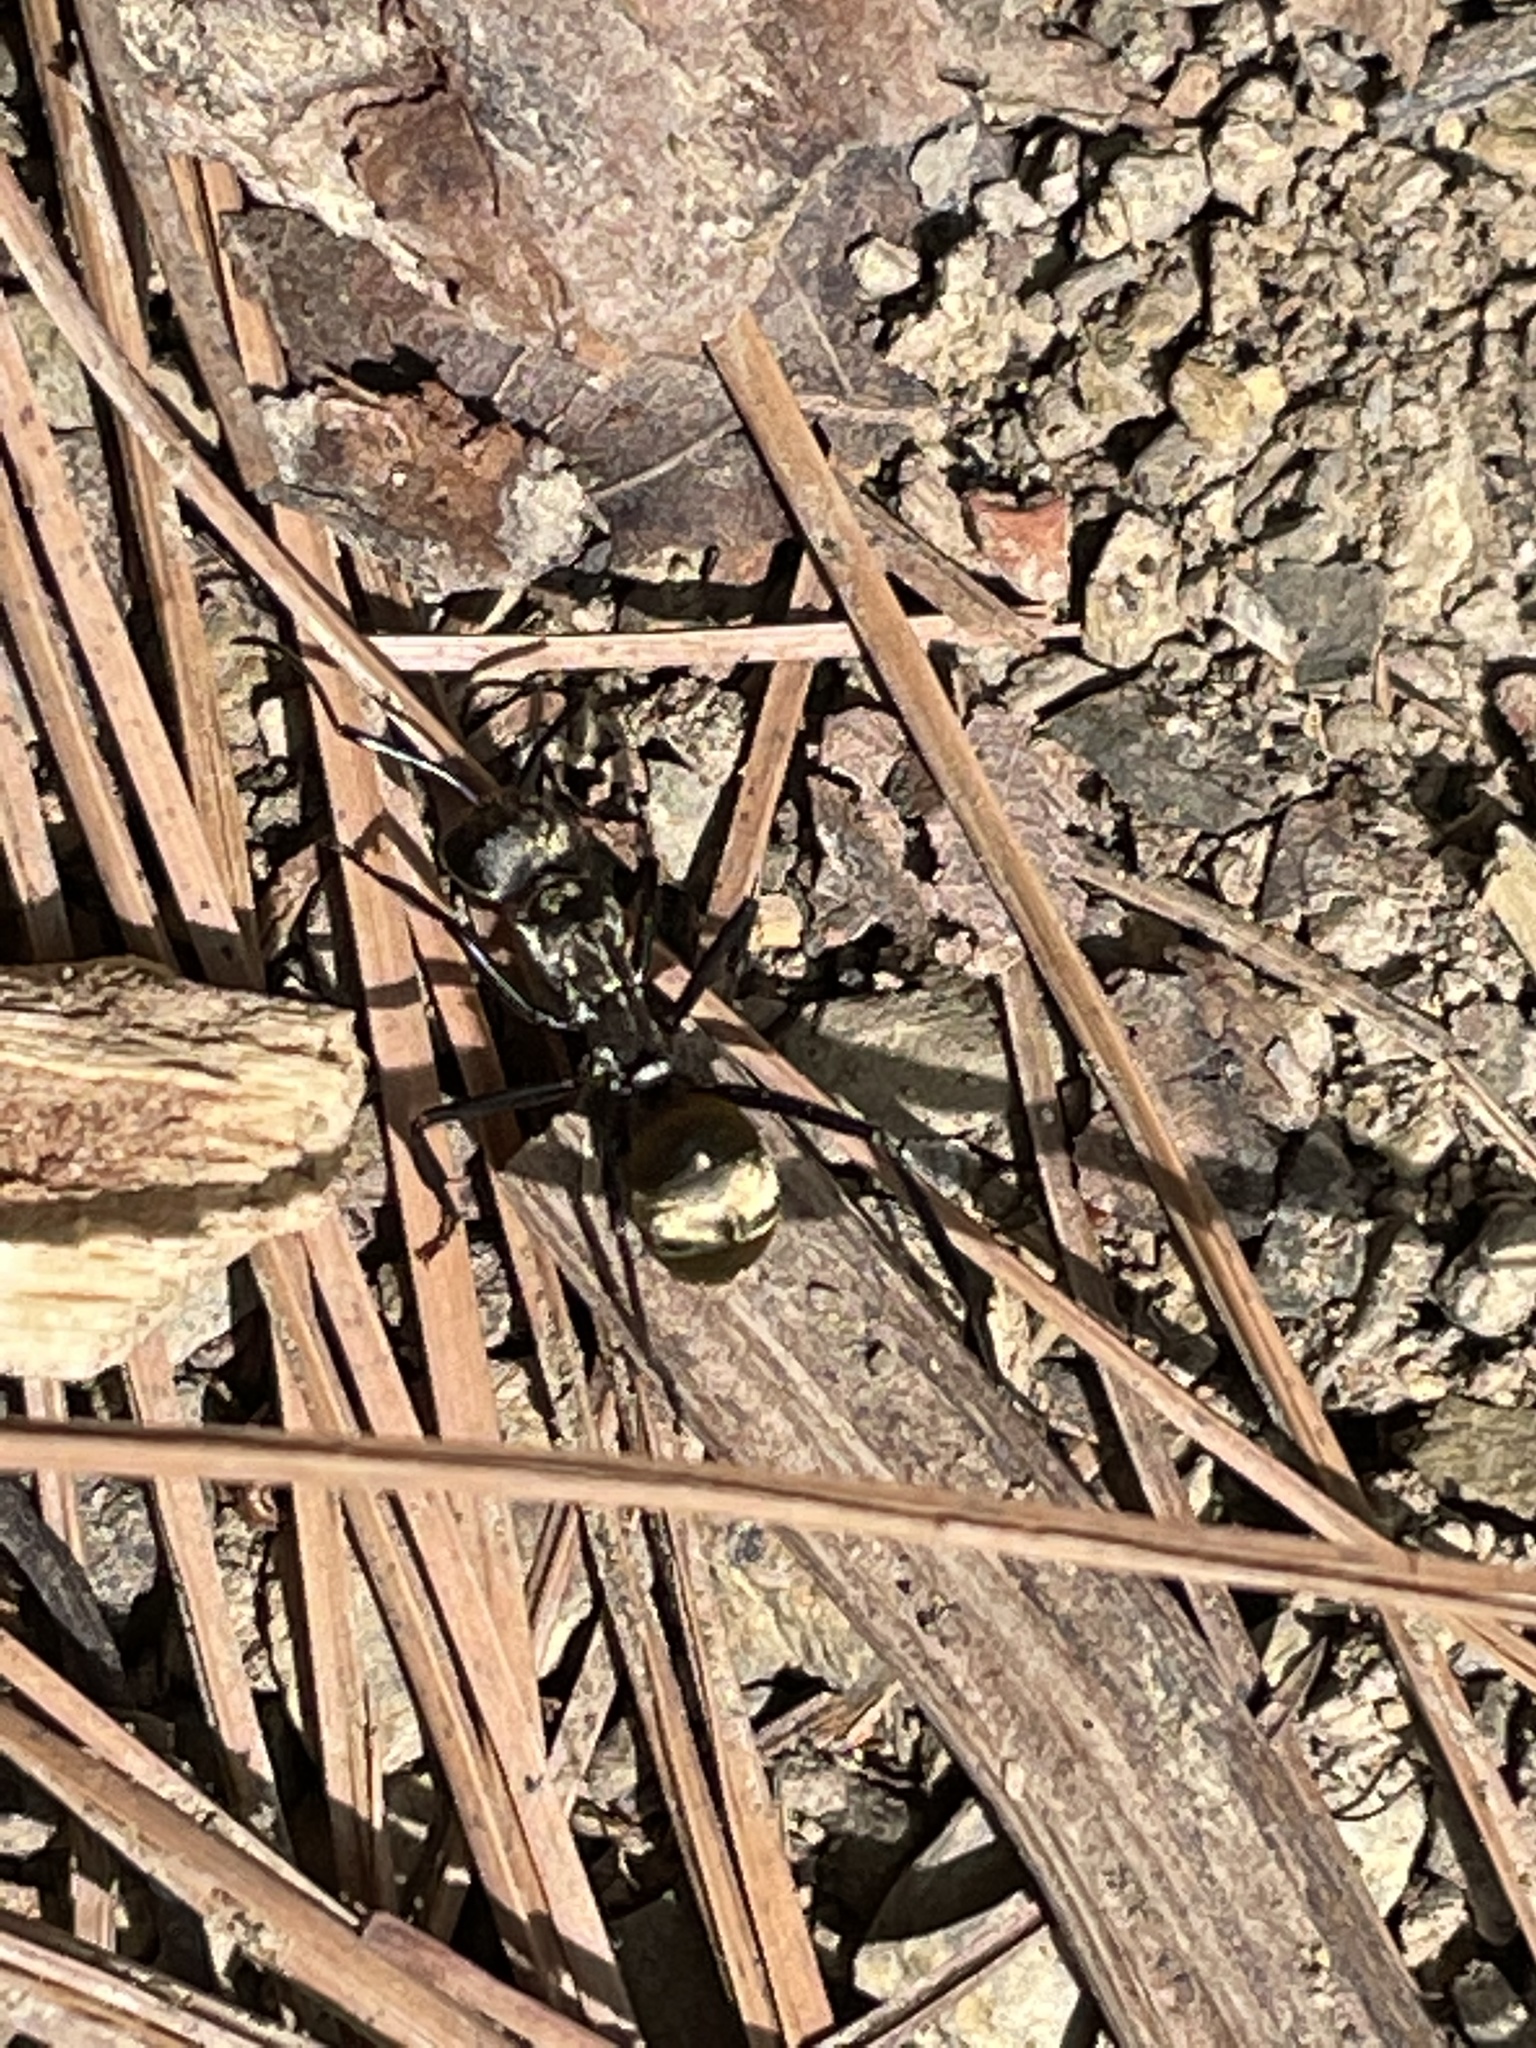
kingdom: Animalia
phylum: Arthropoda
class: Insecta
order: Hymenoptera
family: Formicidae
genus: Camponotus
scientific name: Camponotus sericeiventris
